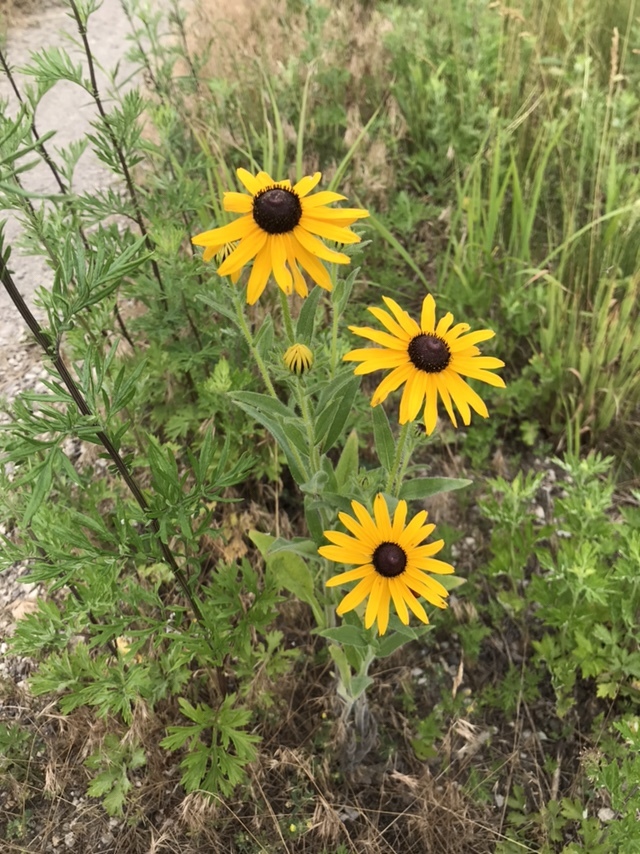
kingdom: Plantae
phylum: Tracheophyta
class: Magnoliopsida
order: Asterales
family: Asteraceae
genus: Rudbeckia
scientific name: Rudbeckia hirta
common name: Black-eyed-susan
